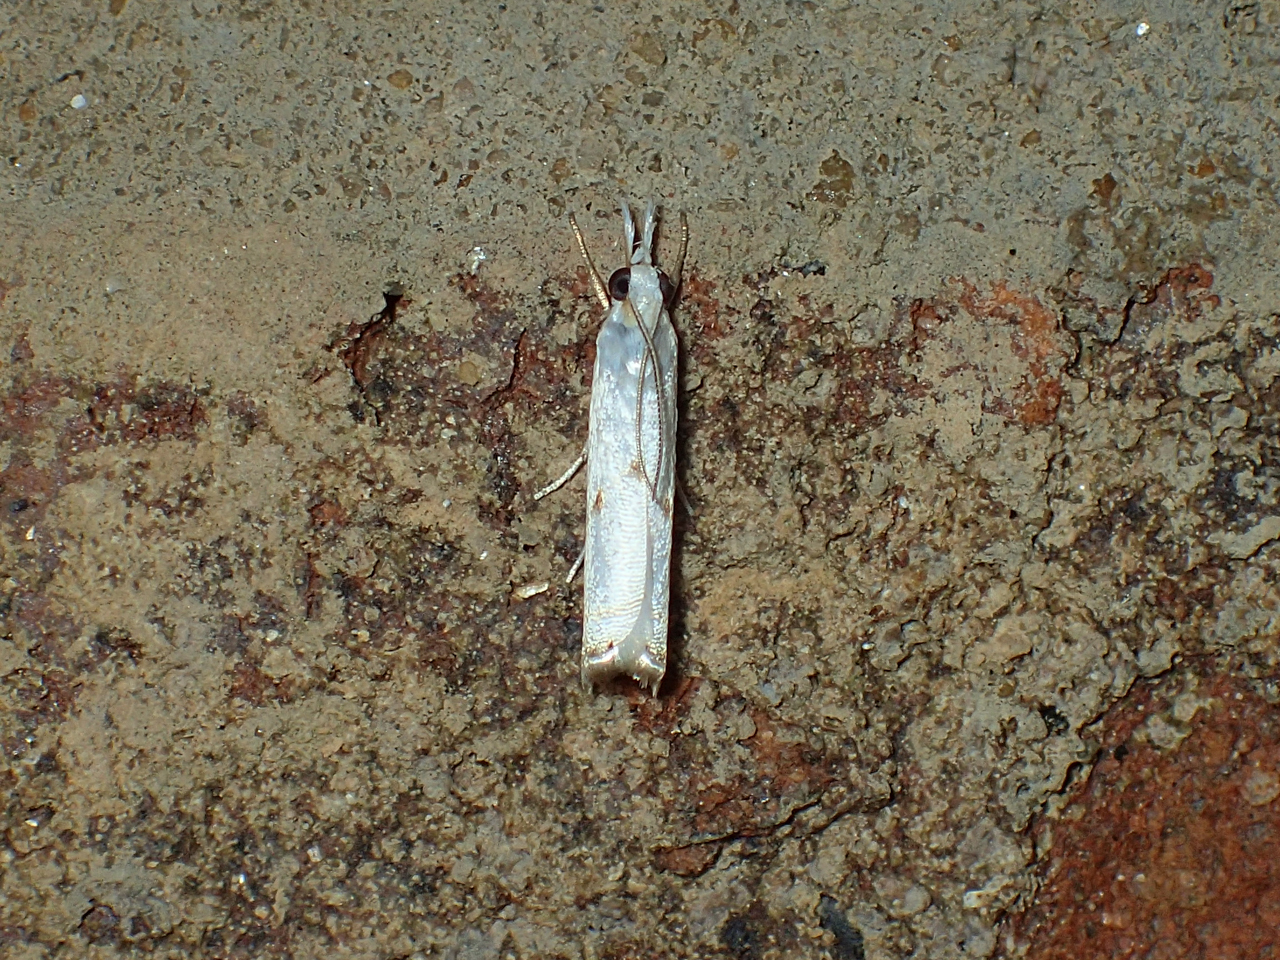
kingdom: Animalia
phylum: Arthropoda
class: Insecta
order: Lepidoptera
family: Crambidae
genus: Microcrambus
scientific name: Microcrambus biguttellus
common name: Gold-stripe grass-veneer moth
